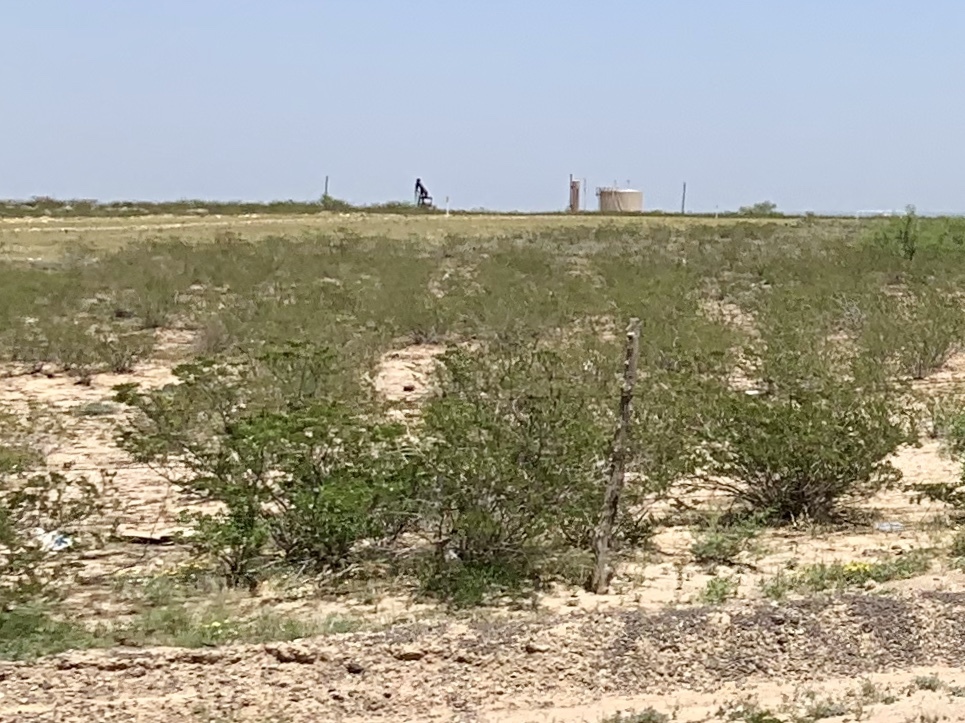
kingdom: Plantae
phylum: Tracheophyta
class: Magnoliopsida
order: Zygophyllales
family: Zygophyllaceae
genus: Larrea
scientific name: Larrea tridentata
